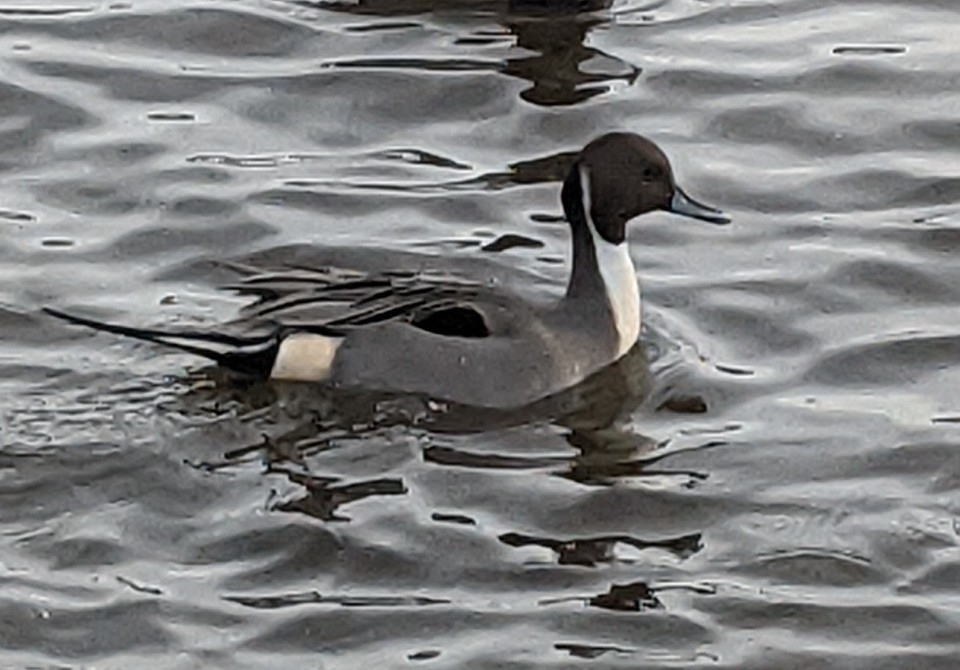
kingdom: Animalia
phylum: Chordata
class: Aves
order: Anseriformes
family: Anatidae
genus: Anas
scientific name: Anas acuta
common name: Northern pintail
